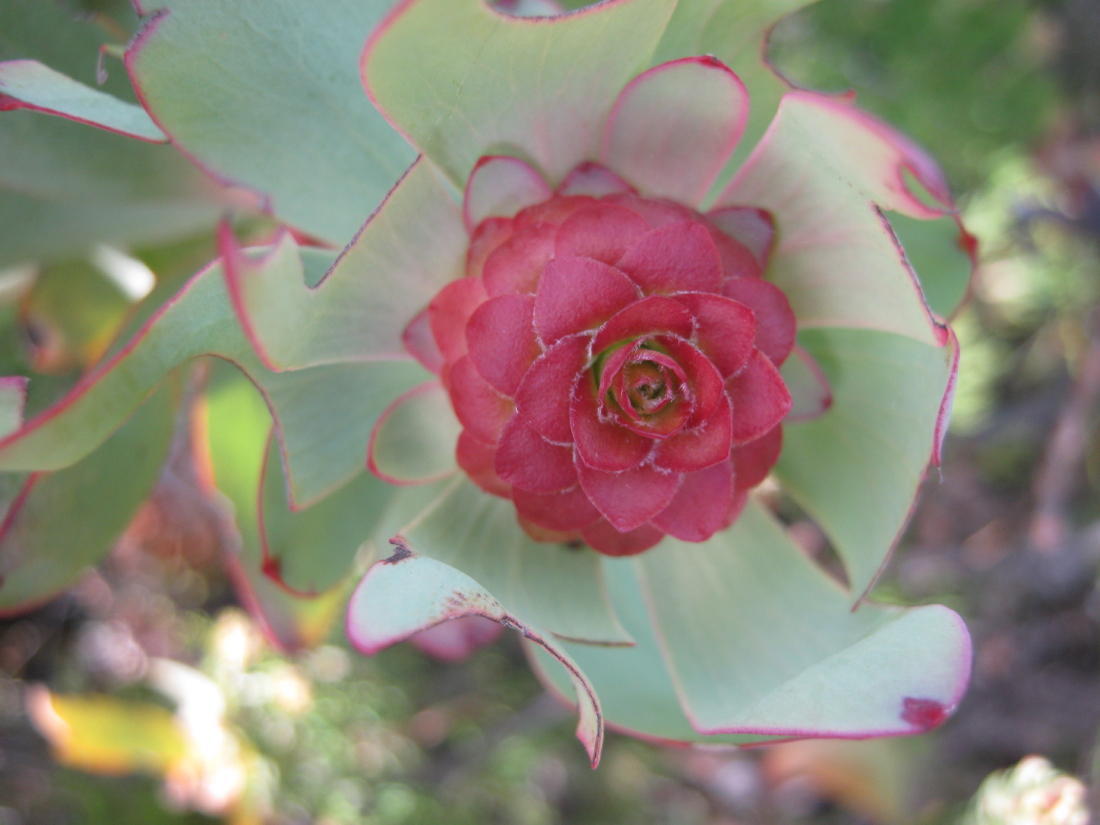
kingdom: Plantae
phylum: Tracheophyta
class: Magnoliopsida
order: Proteales
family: Proteaceae
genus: Leucadendron
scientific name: Leucadendron pubibracteolatum
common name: Purple-leaf conebush
